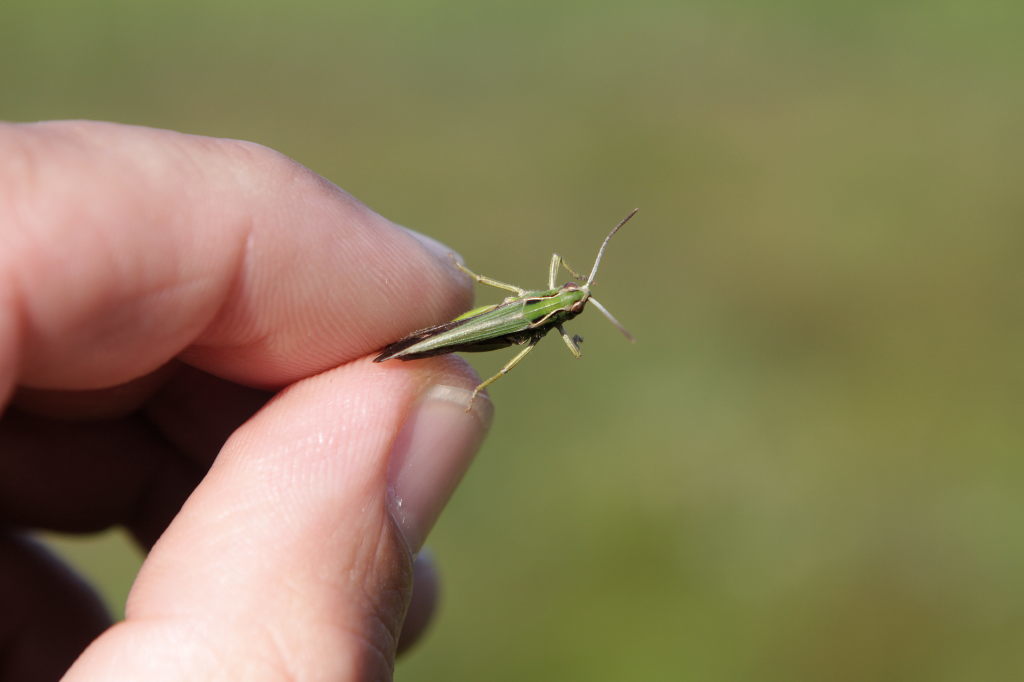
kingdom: Animalia
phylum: Arthropoda
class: Insecta
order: Orthoptera
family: Acrididae
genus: Omocestus
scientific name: Omocestus viridulus
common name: Common green grasshopper
